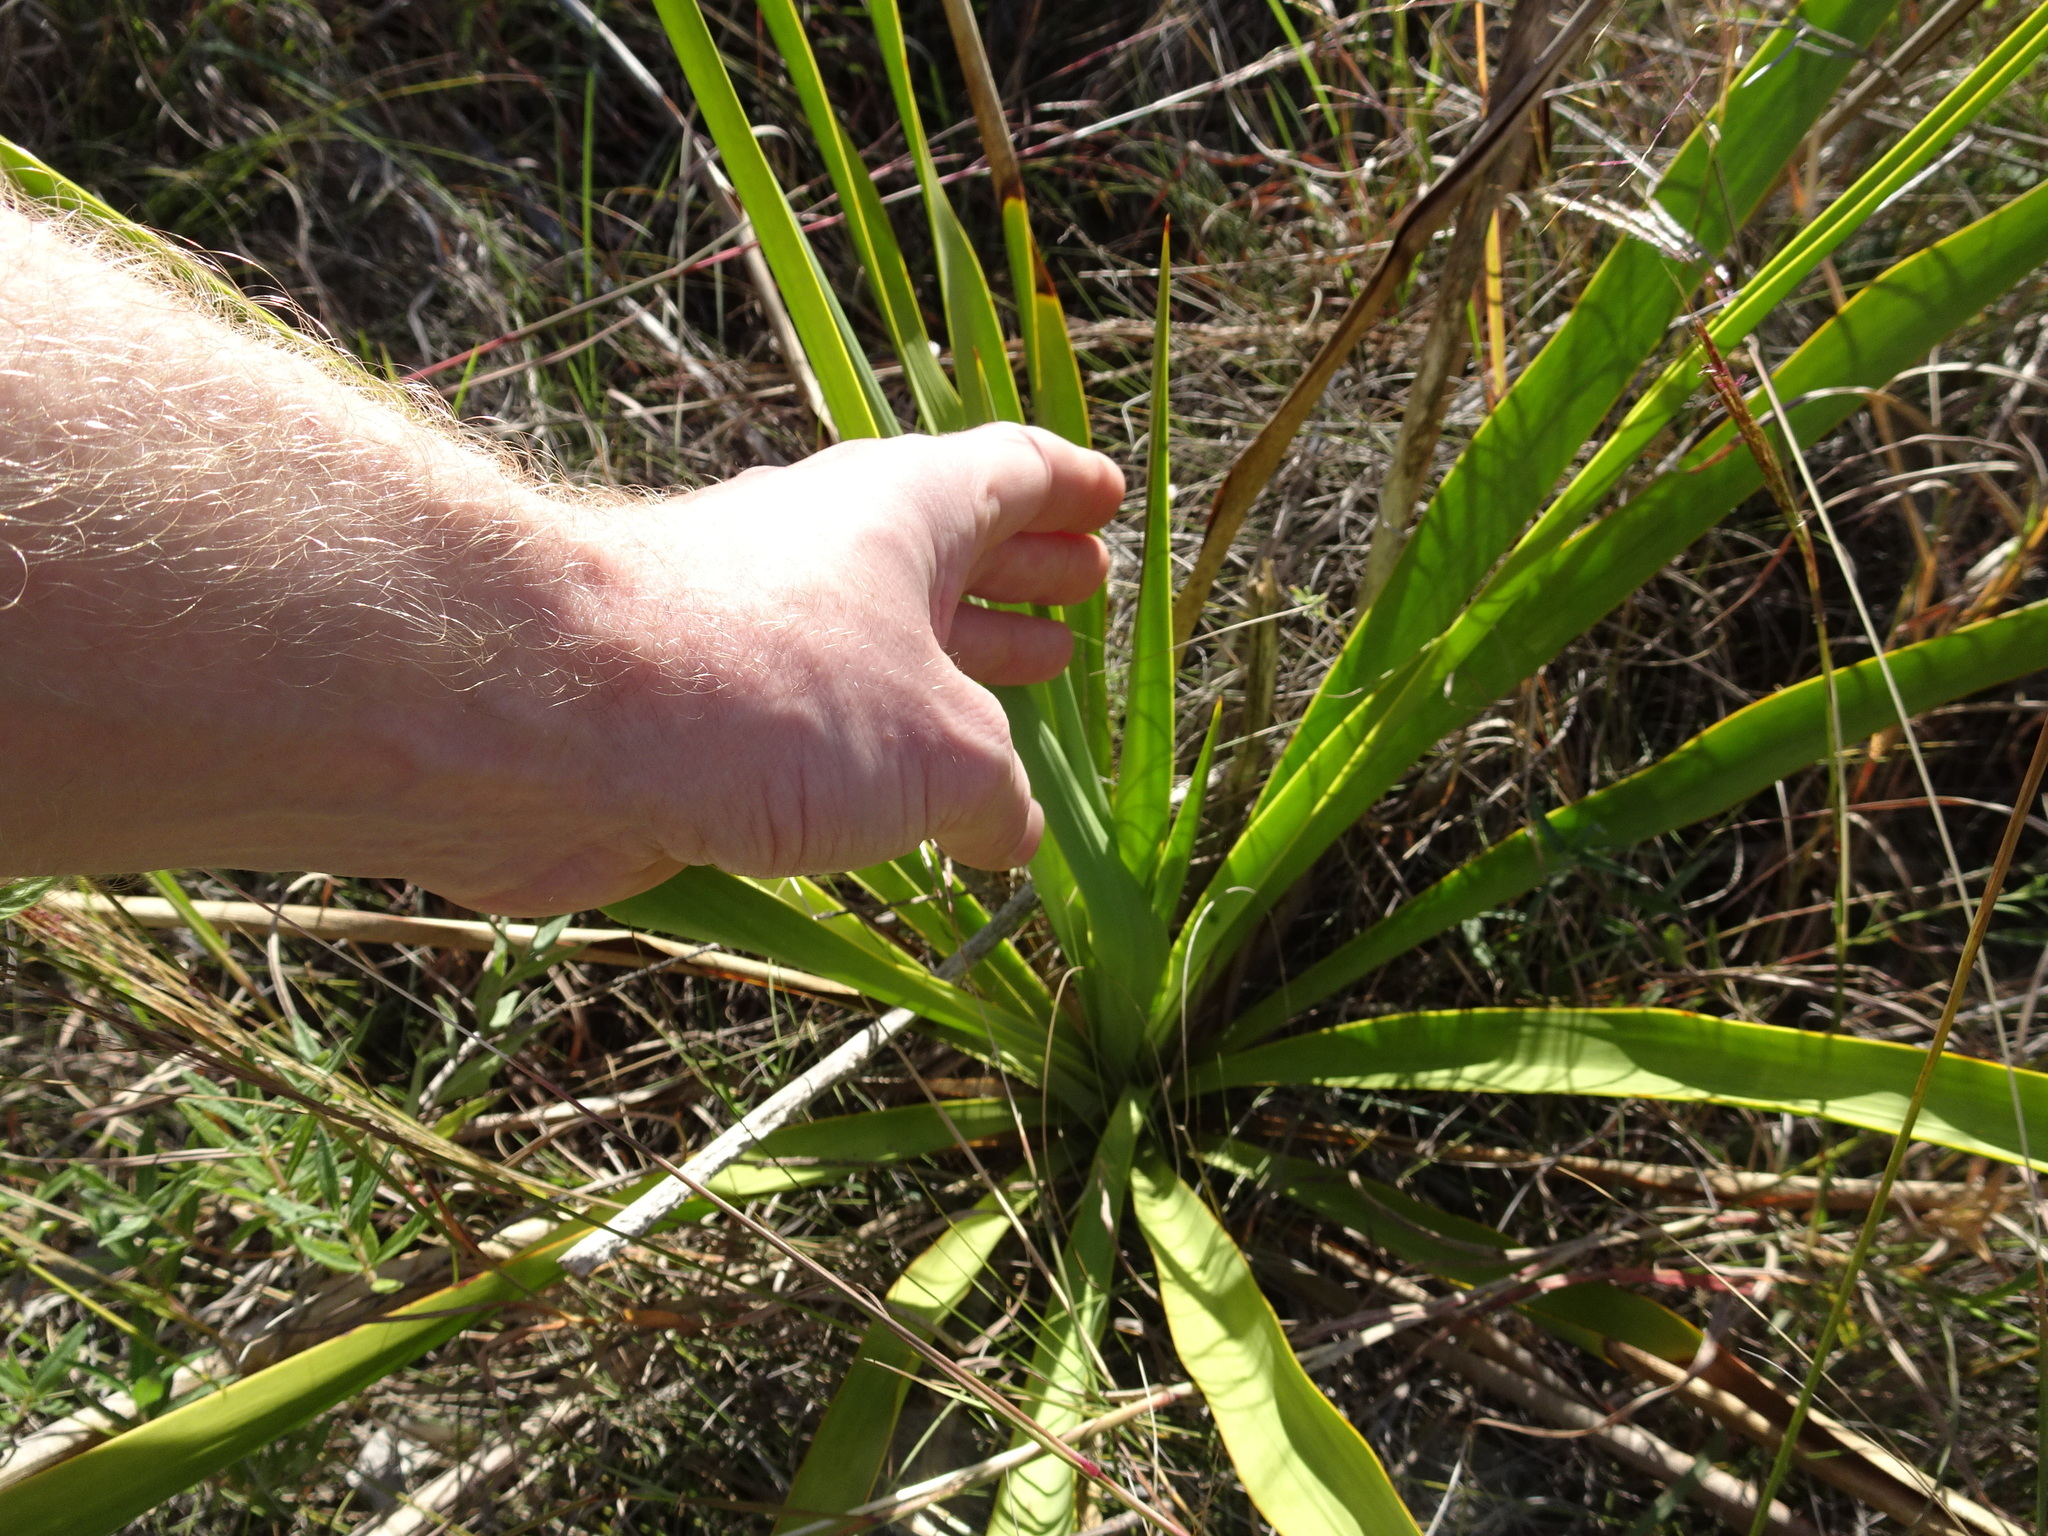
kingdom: Plantae
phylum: Tracheophyta
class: Liliopsida
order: Asparagales
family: Asparagaceae
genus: Yucca
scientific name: Yucca rupicola
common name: Twisted-leaf spanish-dagger
